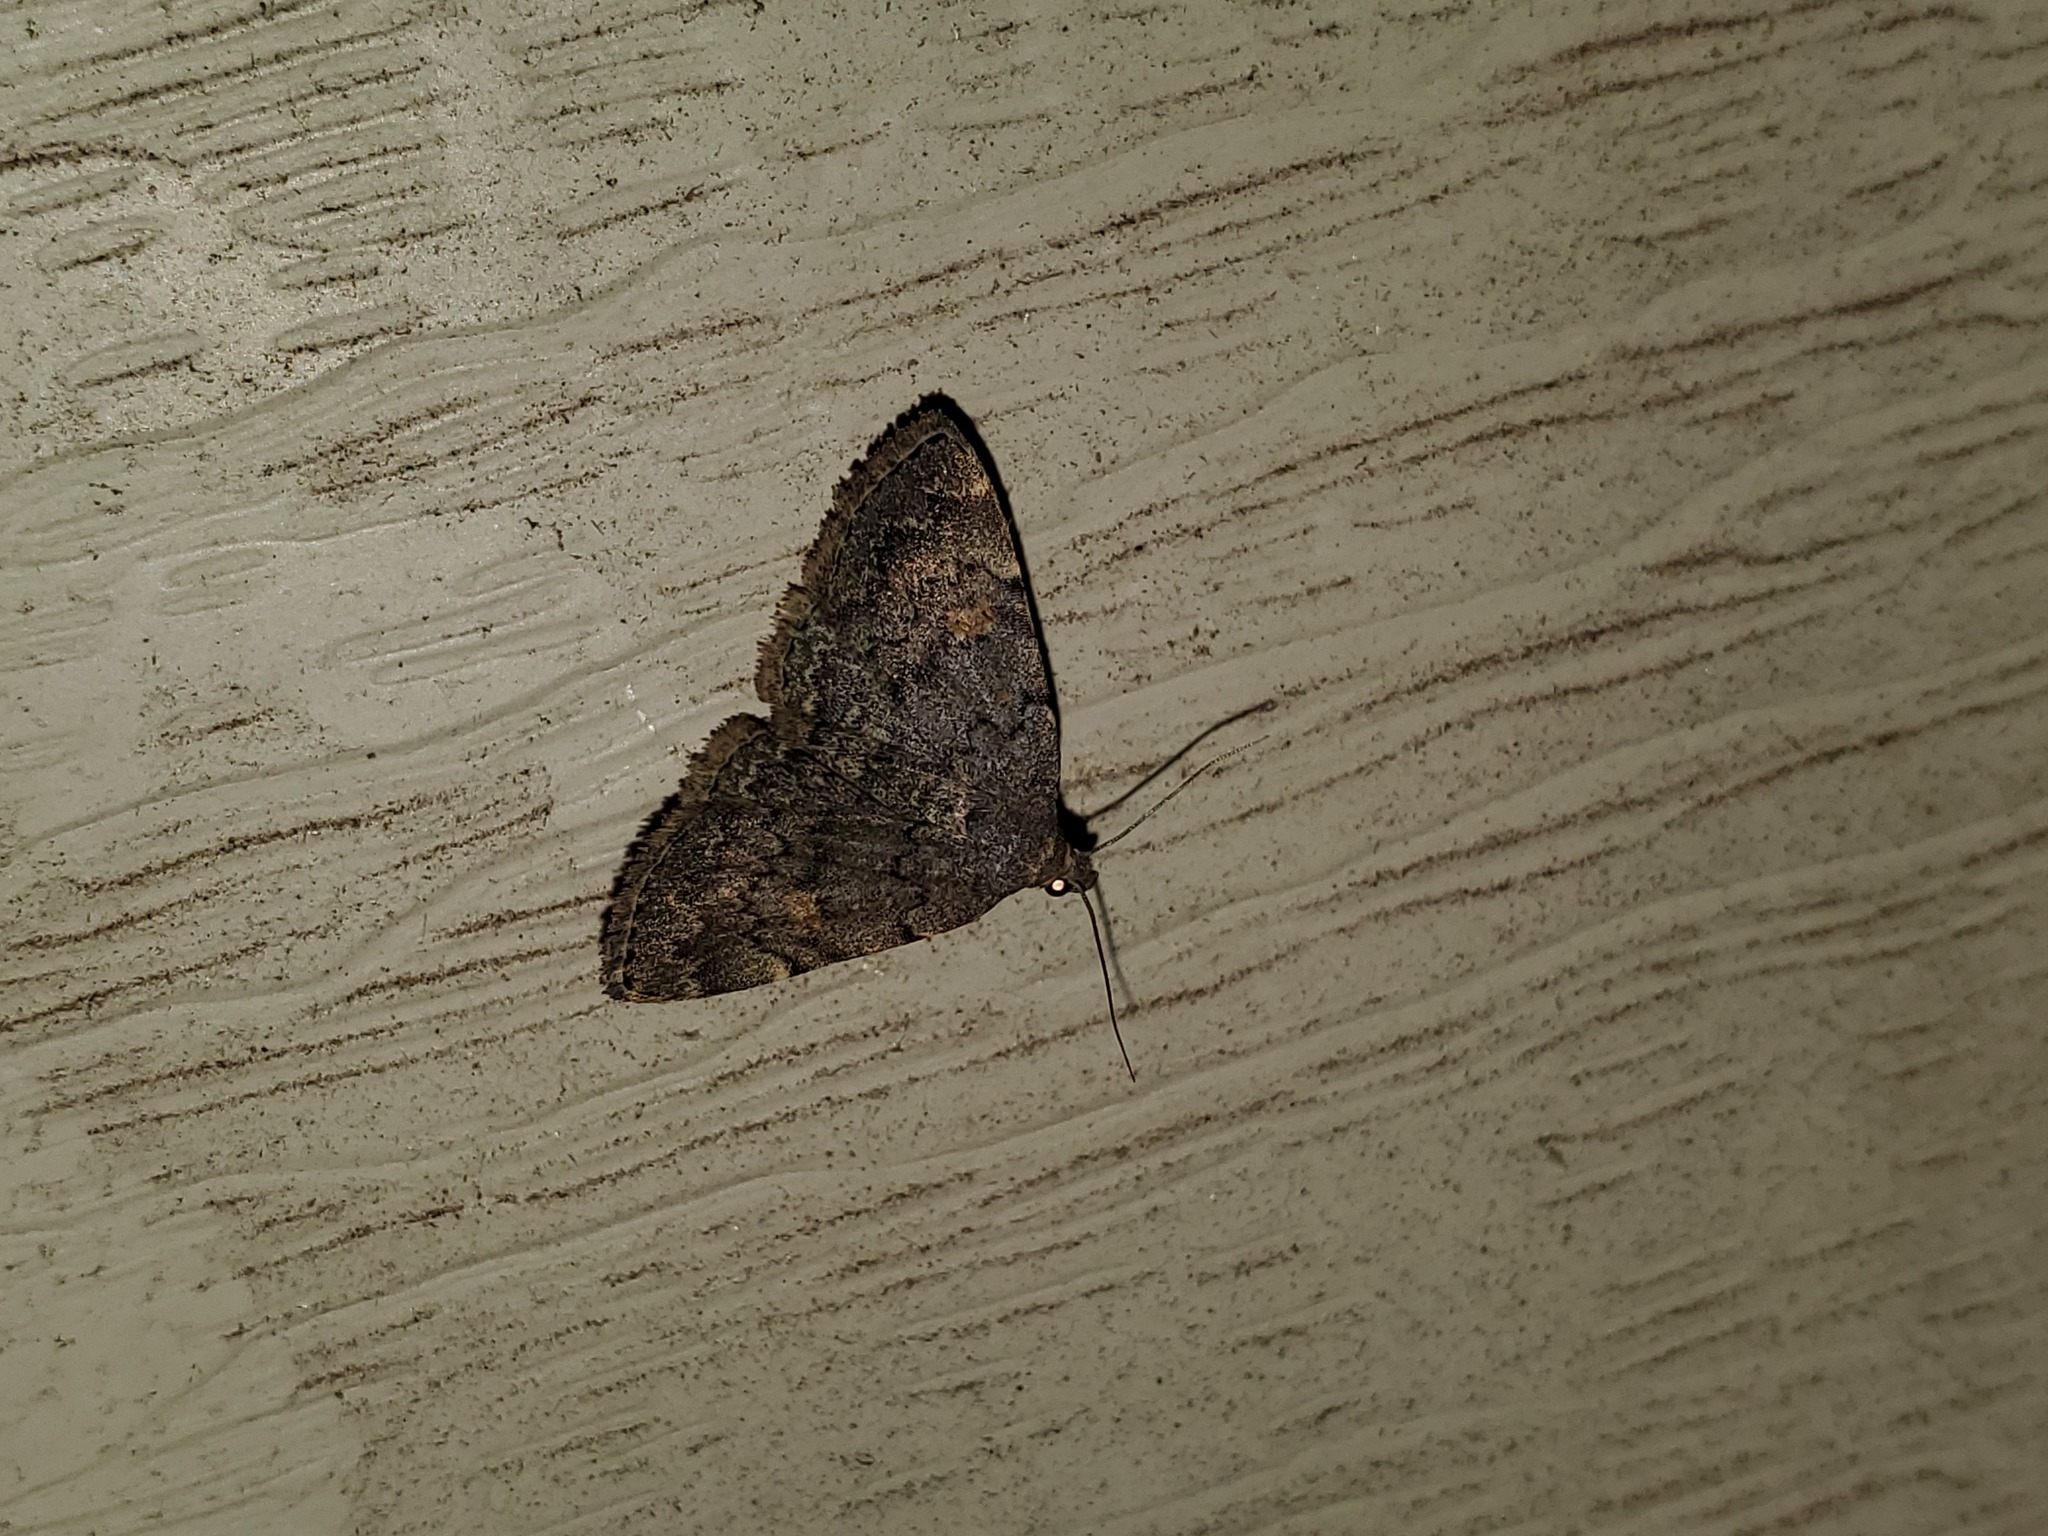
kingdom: Animalia
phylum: Arthropoda
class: Insecta
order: Lepidoptera
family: Erebidae
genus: Idia
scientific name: Idia aemula
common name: Common idia moth
